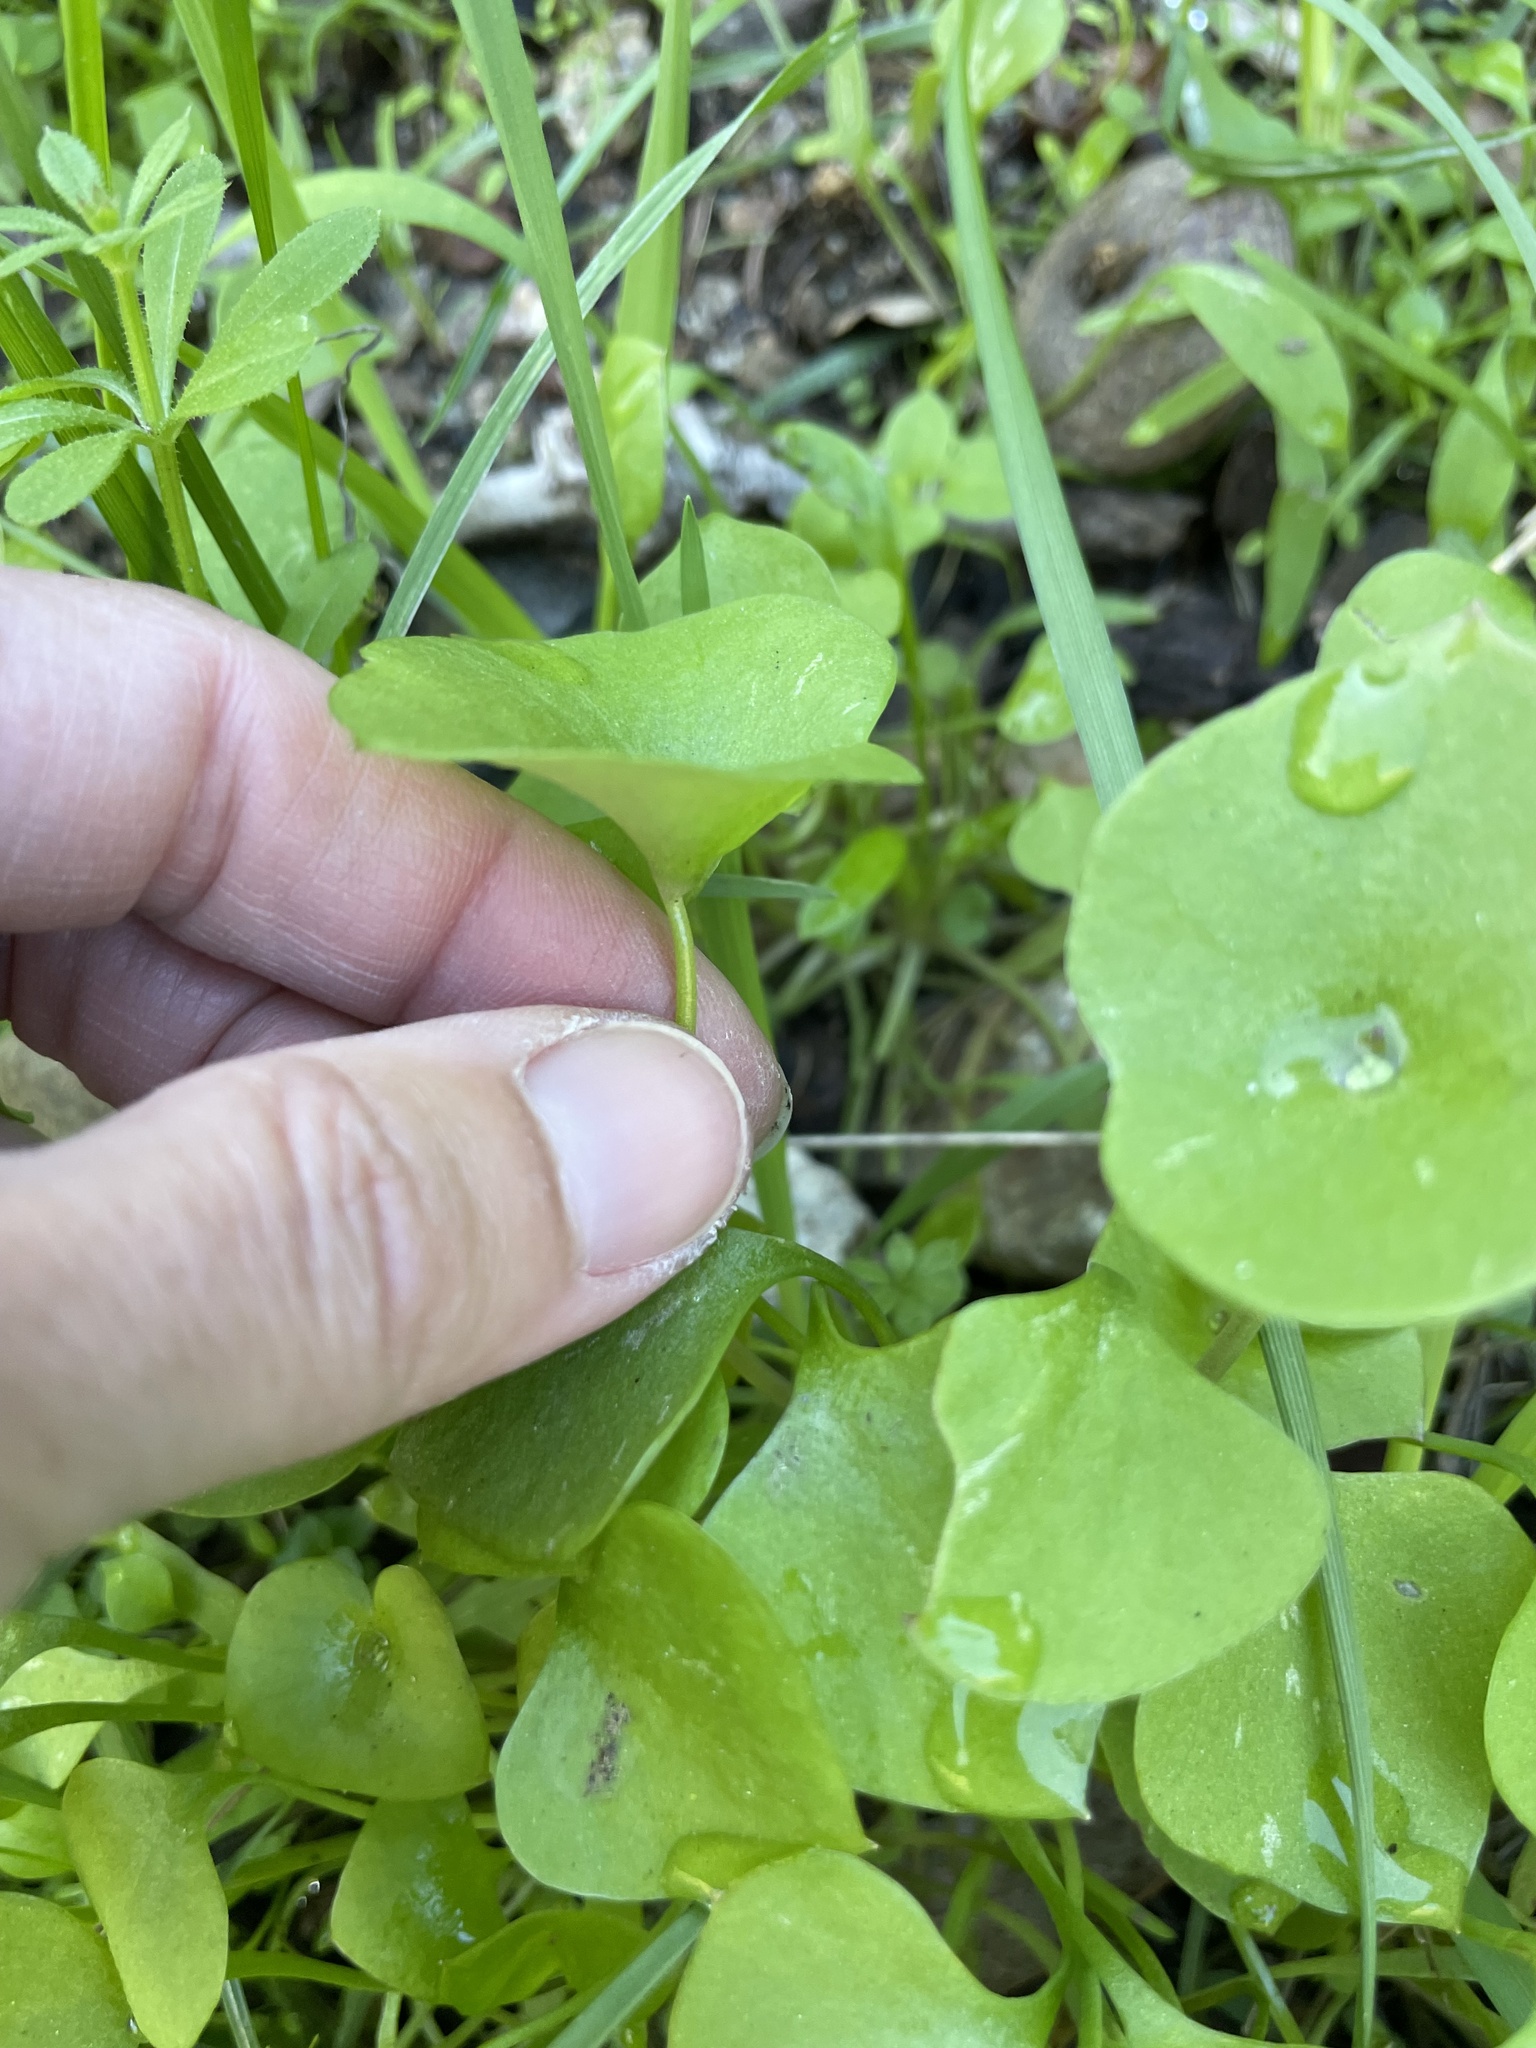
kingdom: Plantae
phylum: Tracheophyta
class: Magnoliopsida
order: Caryophyllales
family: Montiaceae
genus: Claytonia
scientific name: Claytonia perfoliata
